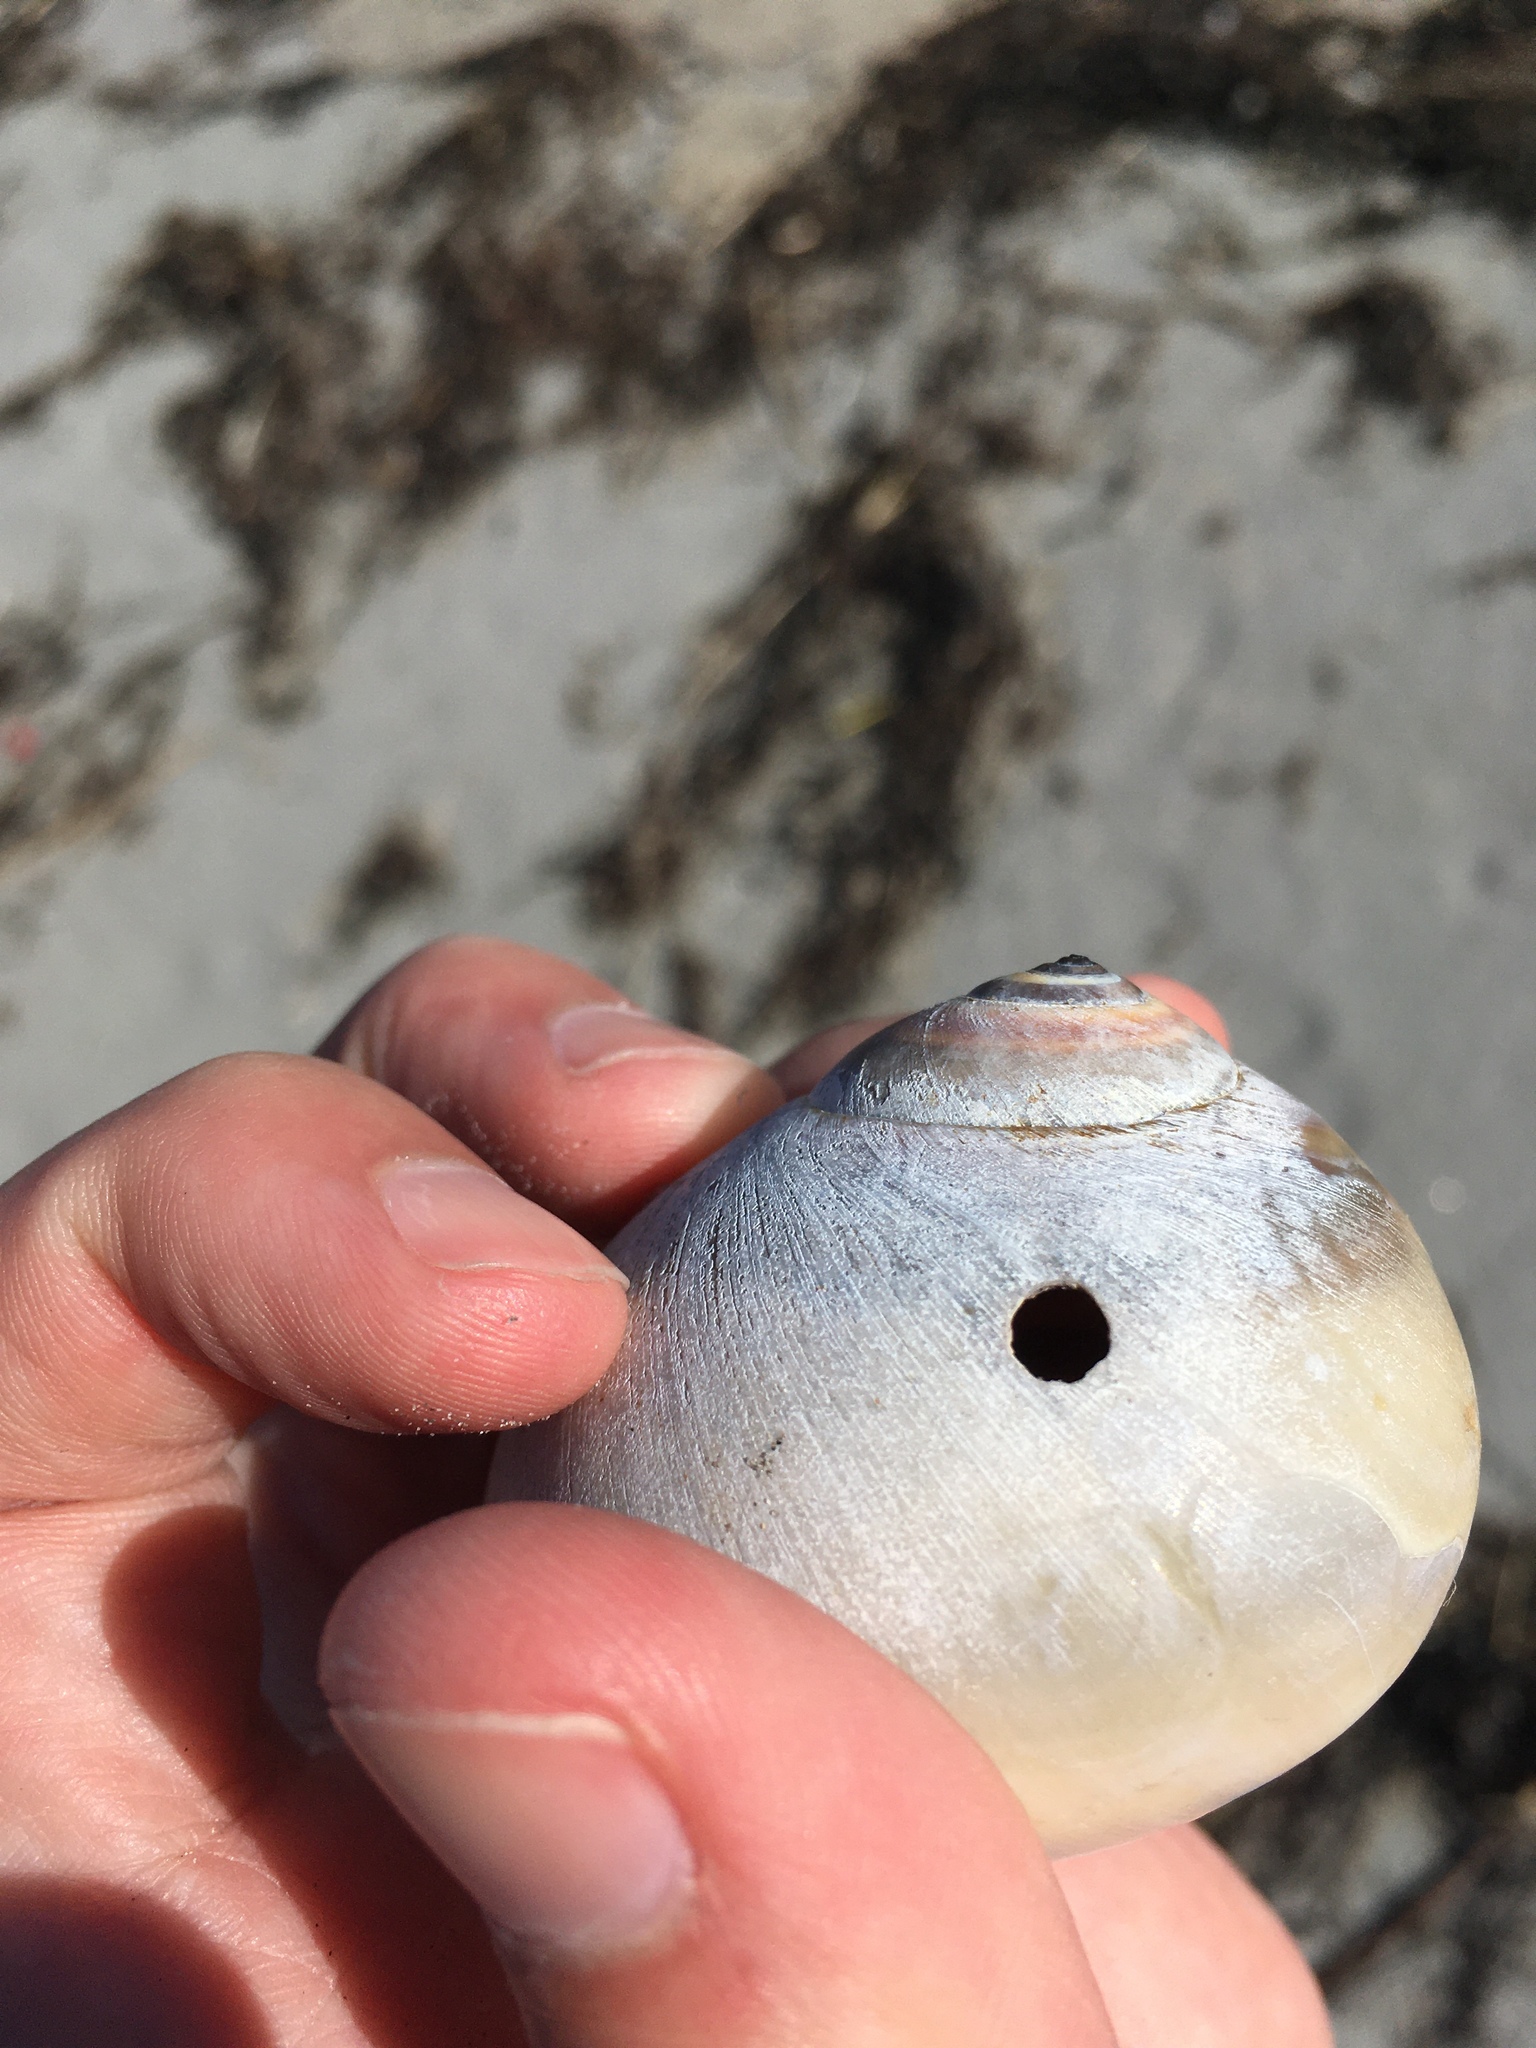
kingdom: Animalia
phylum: Mollusca
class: Gastropoda
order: Littorinimorpha
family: Naticidae
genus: Neverita
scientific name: Neverita duplicata
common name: Lobed moonsnail
